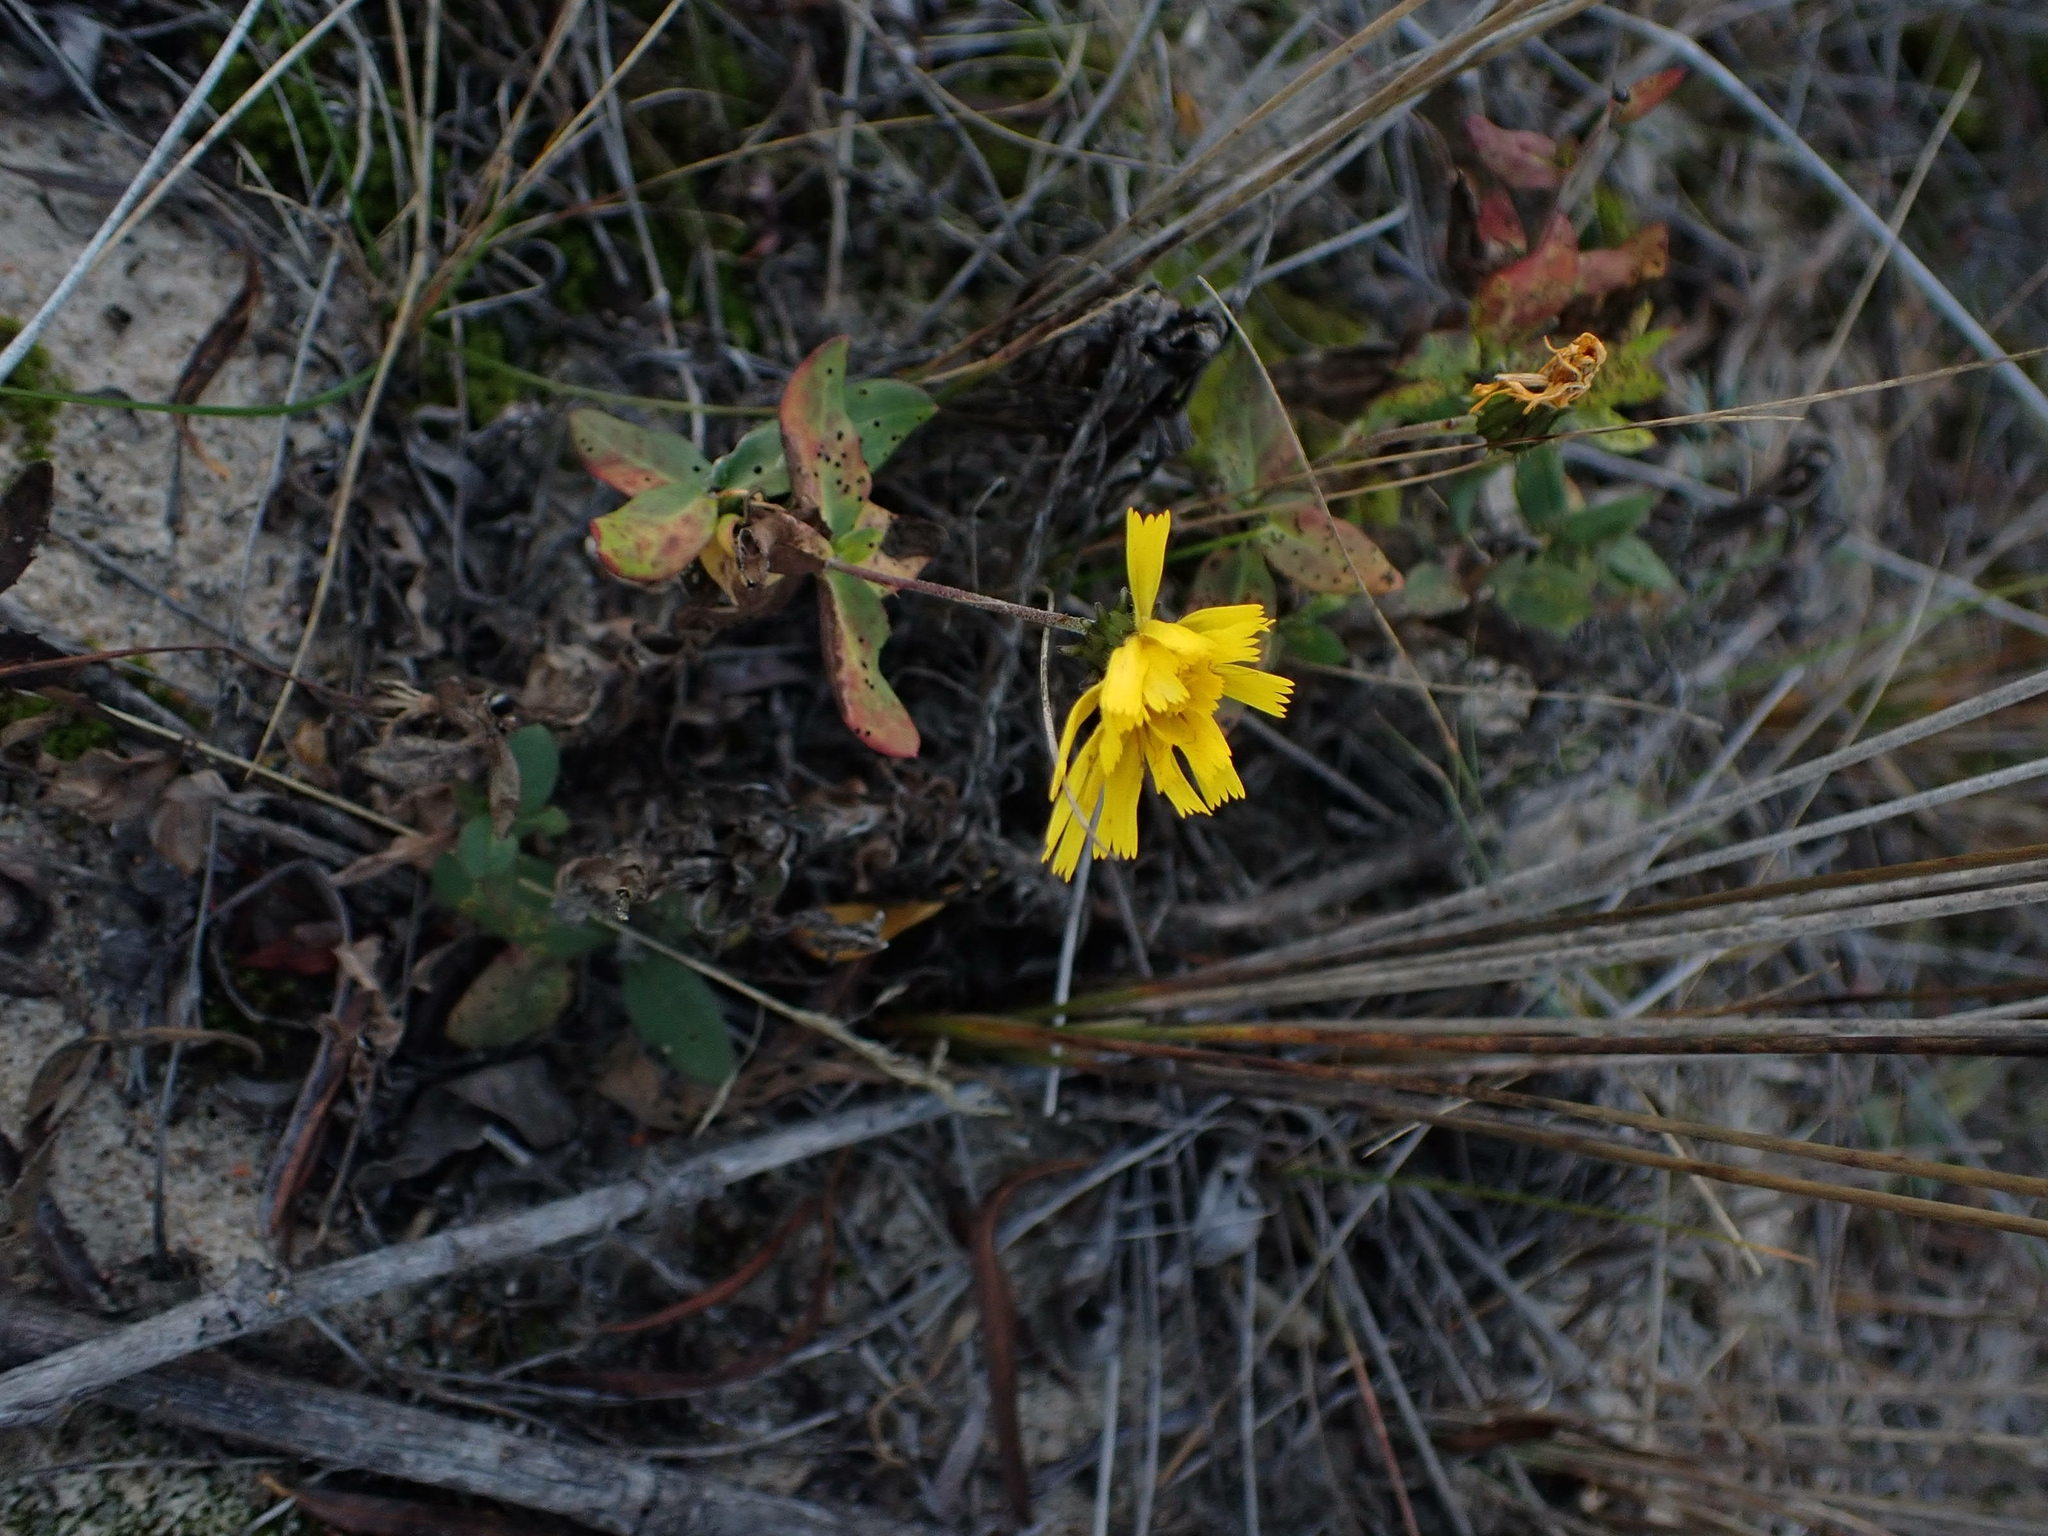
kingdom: Plantae
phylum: Tracheophyta
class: Magnoliopsida
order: Asterales
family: Asteraceae
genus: Hieracium
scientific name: Hieracium umbellatum
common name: Northern hawkweed
